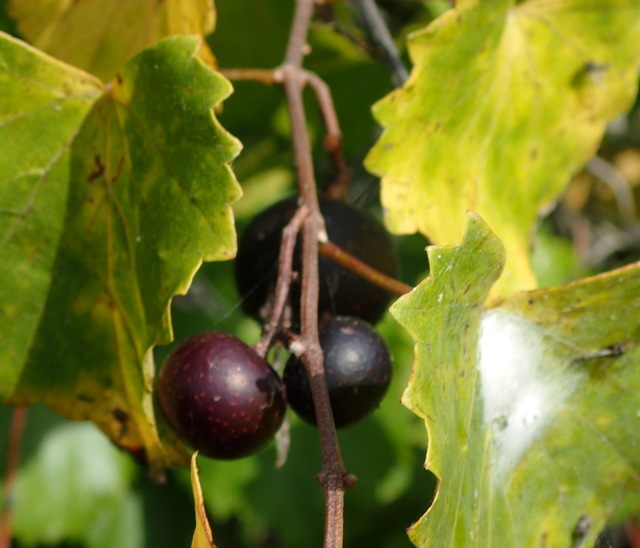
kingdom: Plantae
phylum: Tracheophyta
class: Magnoliopsida
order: Vitales
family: Vitaceae
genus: Vitis
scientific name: Vitis rotundifolia
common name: Muscadine grape
